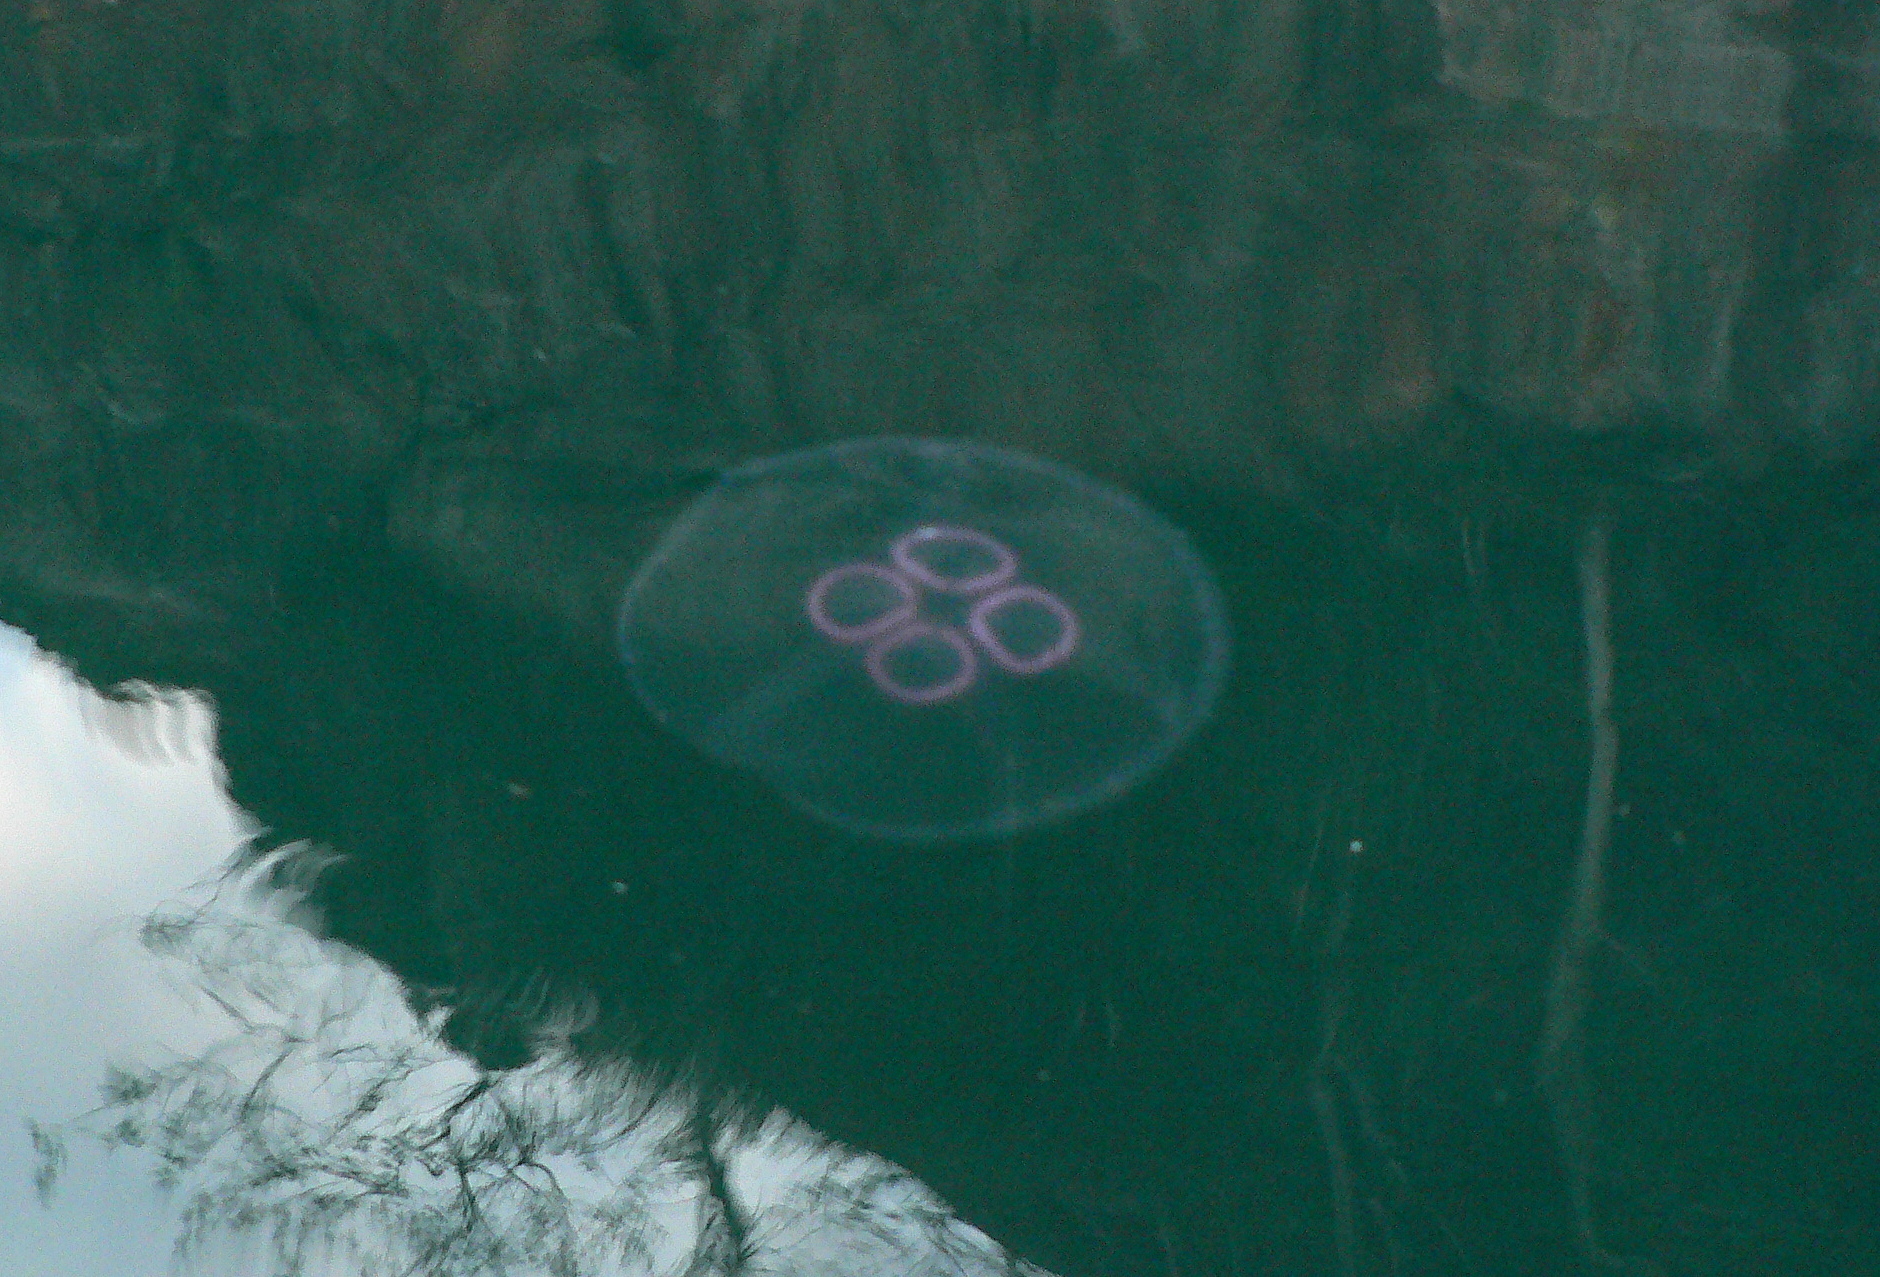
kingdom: Animalia
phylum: Cnidaria
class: Scyphozoa
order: Semaeostomeae
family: Ulmaridae
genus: Aurelia
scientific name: Aurelia aurita
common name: Moon jellyfish
